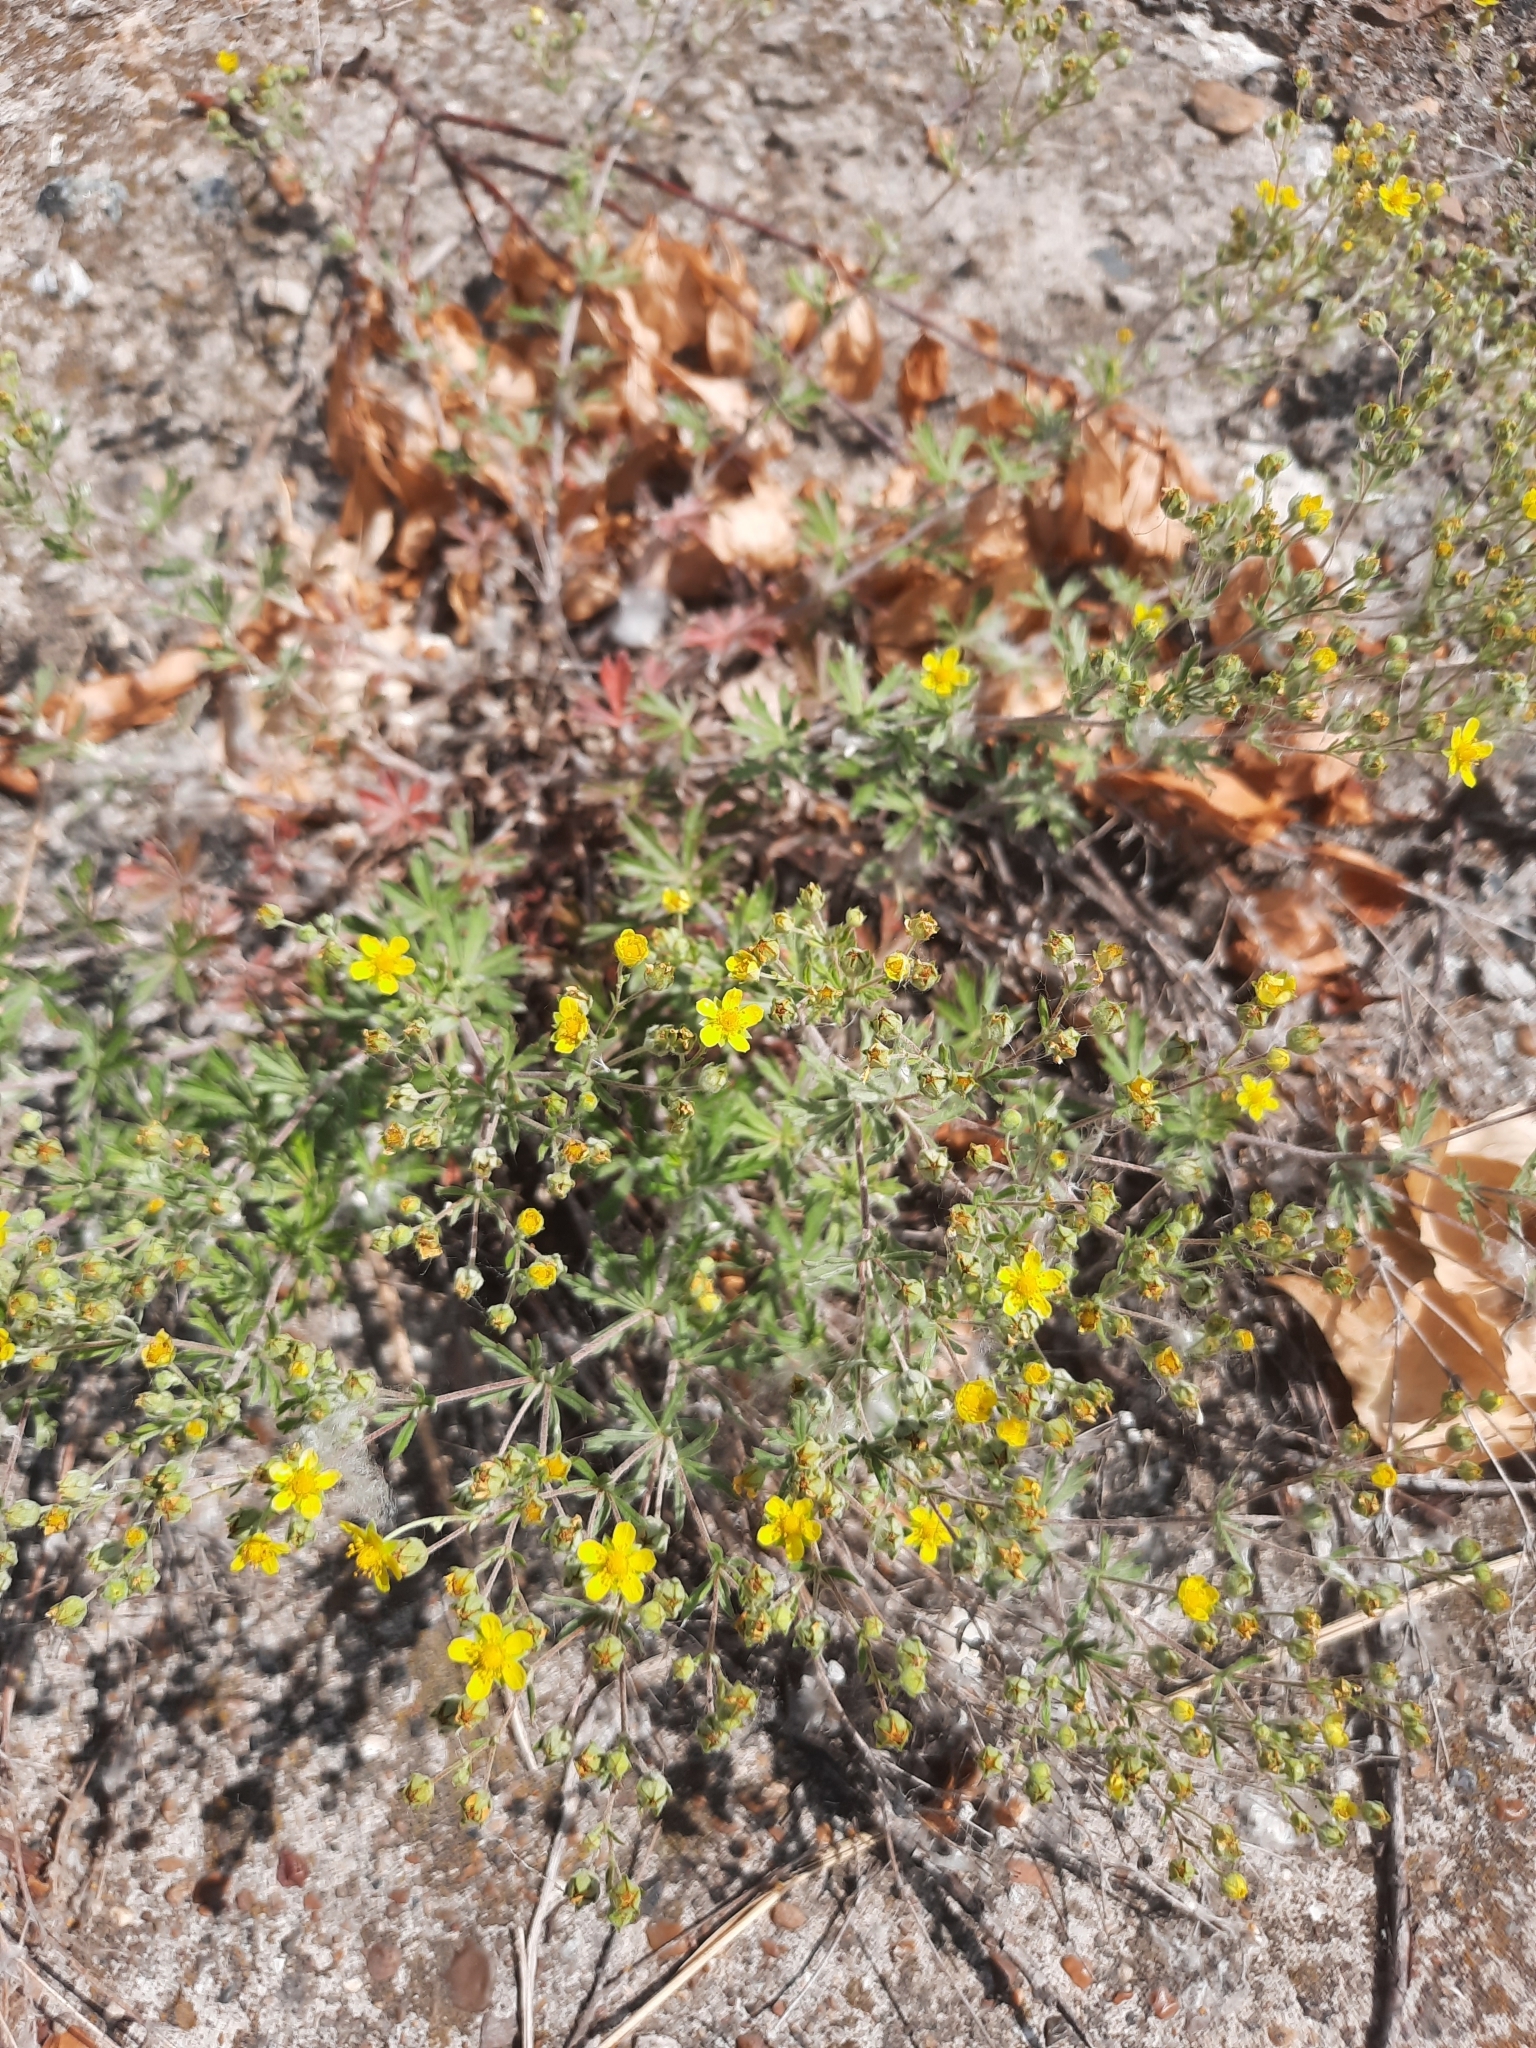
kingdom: Plantae
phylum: Tracheophyta
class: Magnoliopsida
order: Rosales
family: Rosaceae
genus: Potentilla
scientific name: Potentilla argentea
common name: Hoary cinquefoil
